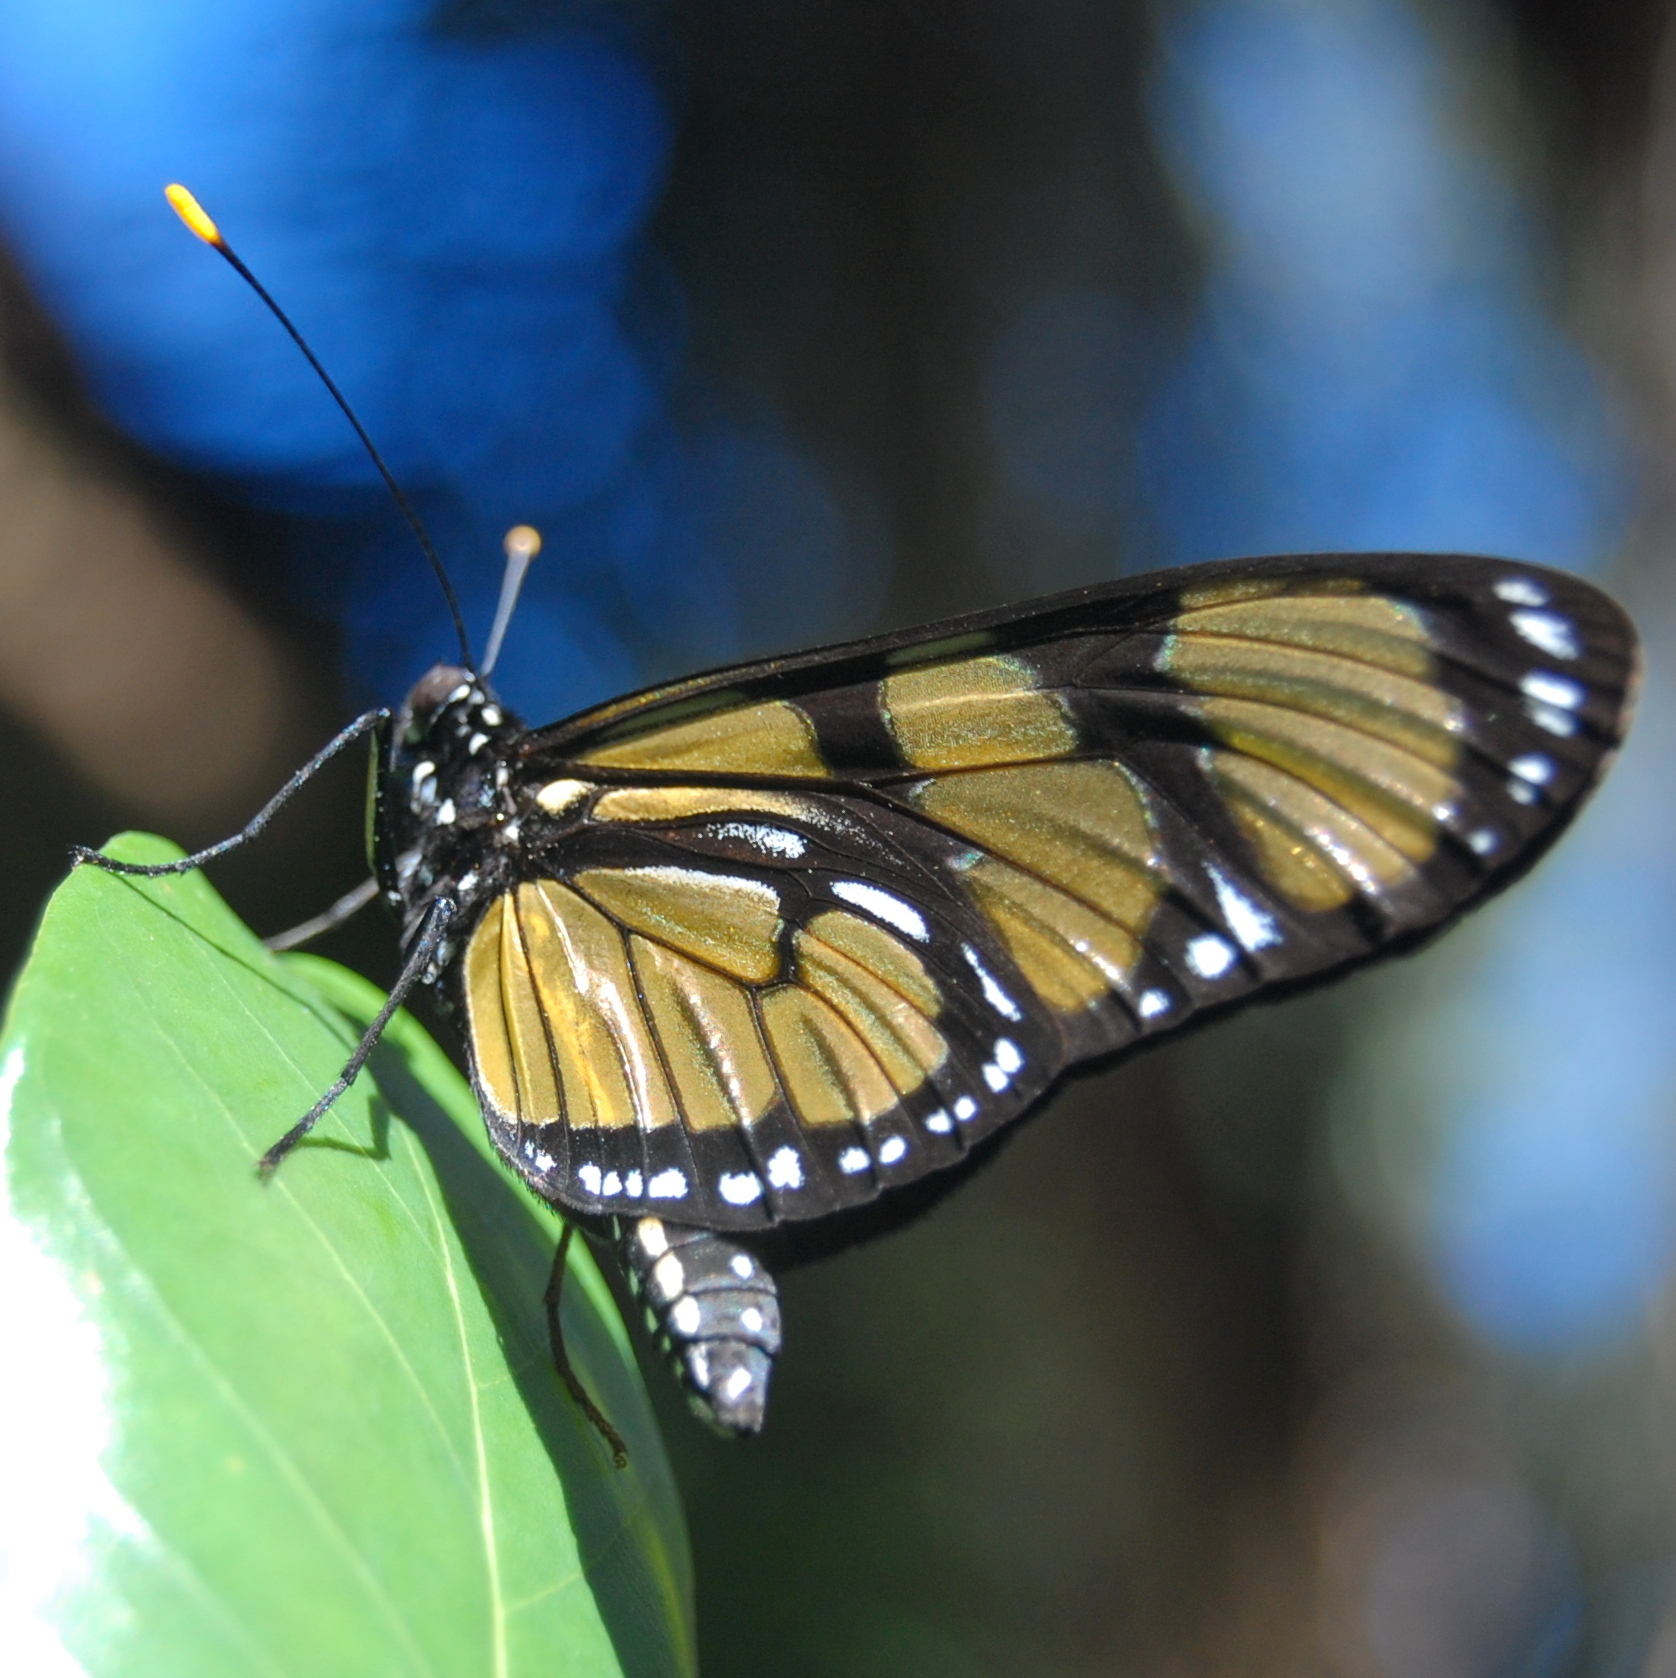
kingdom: Animalia
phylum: Arthropoda
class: Insecta
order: Lepidoptera
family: Nymphalidae
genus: Methona
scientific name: Methona themisto
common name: Themisto amberwing
